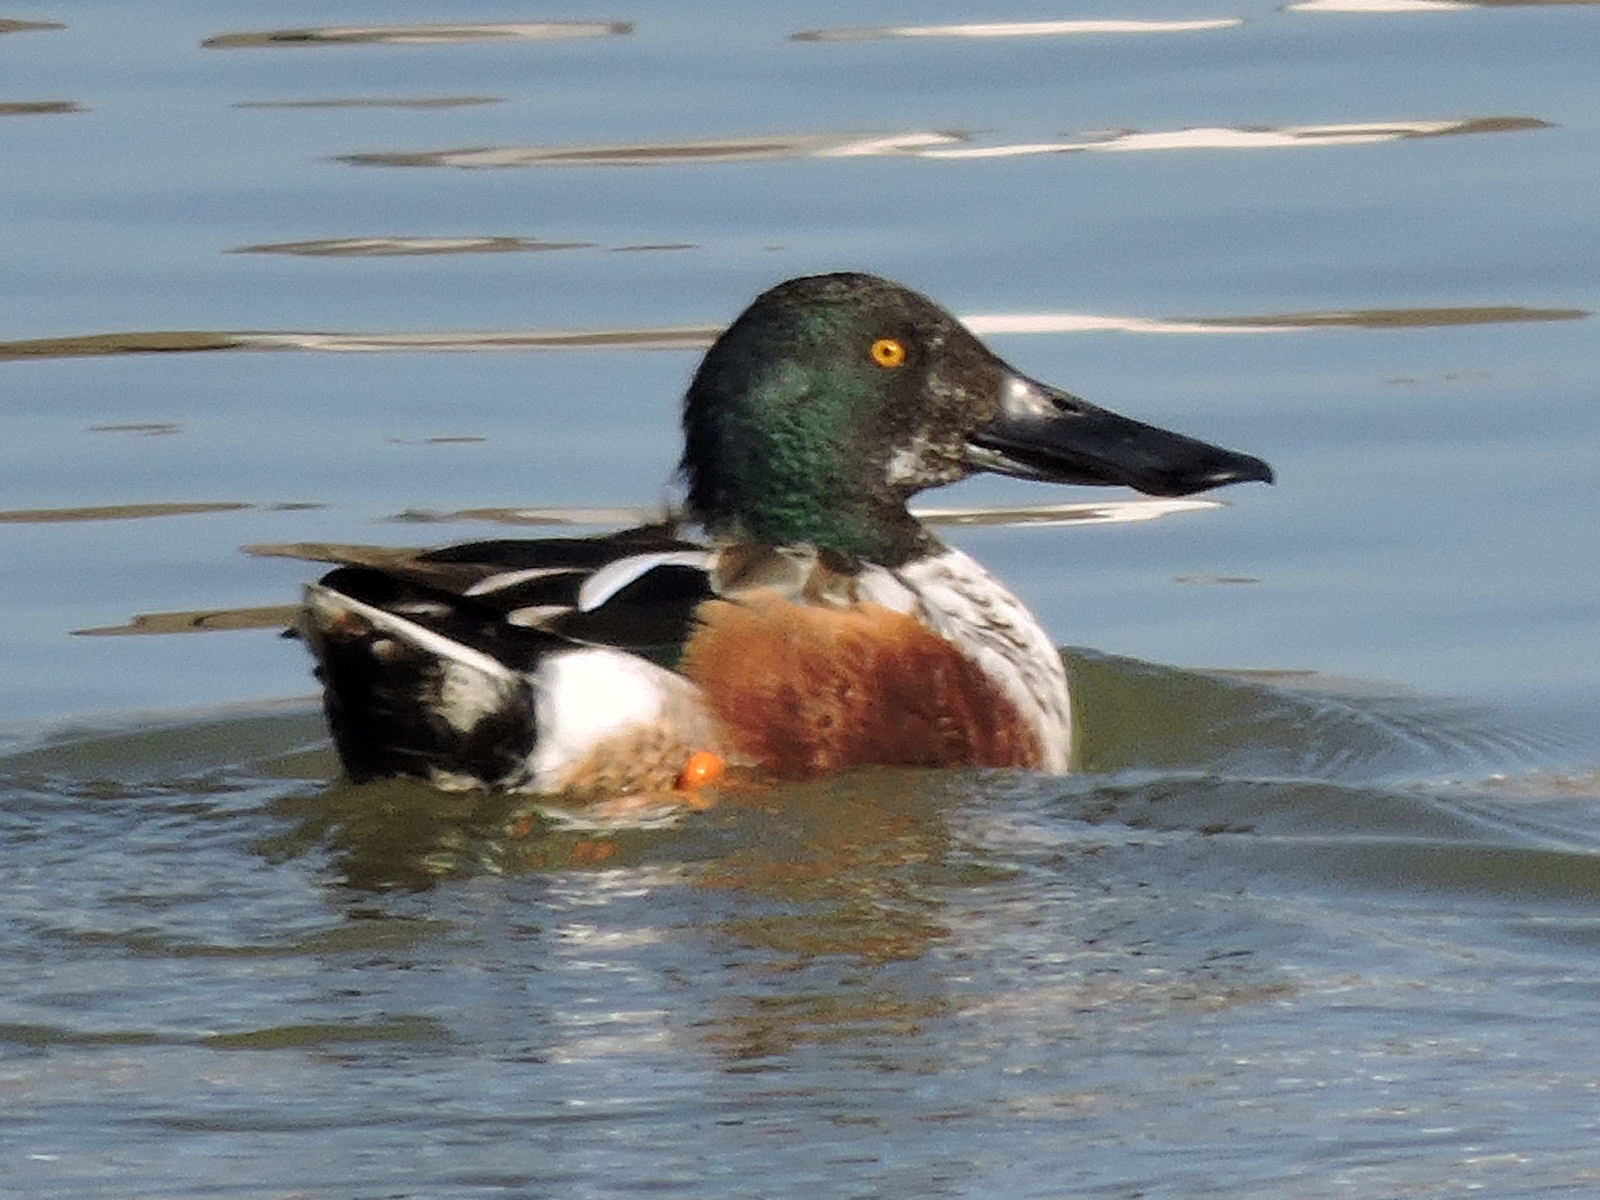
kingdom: Animalia
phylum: Chordata
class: Aves
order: Anseriformes
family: Anatidae
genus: Spatula
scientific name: Spatula clypeata
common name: Northern shoveler
